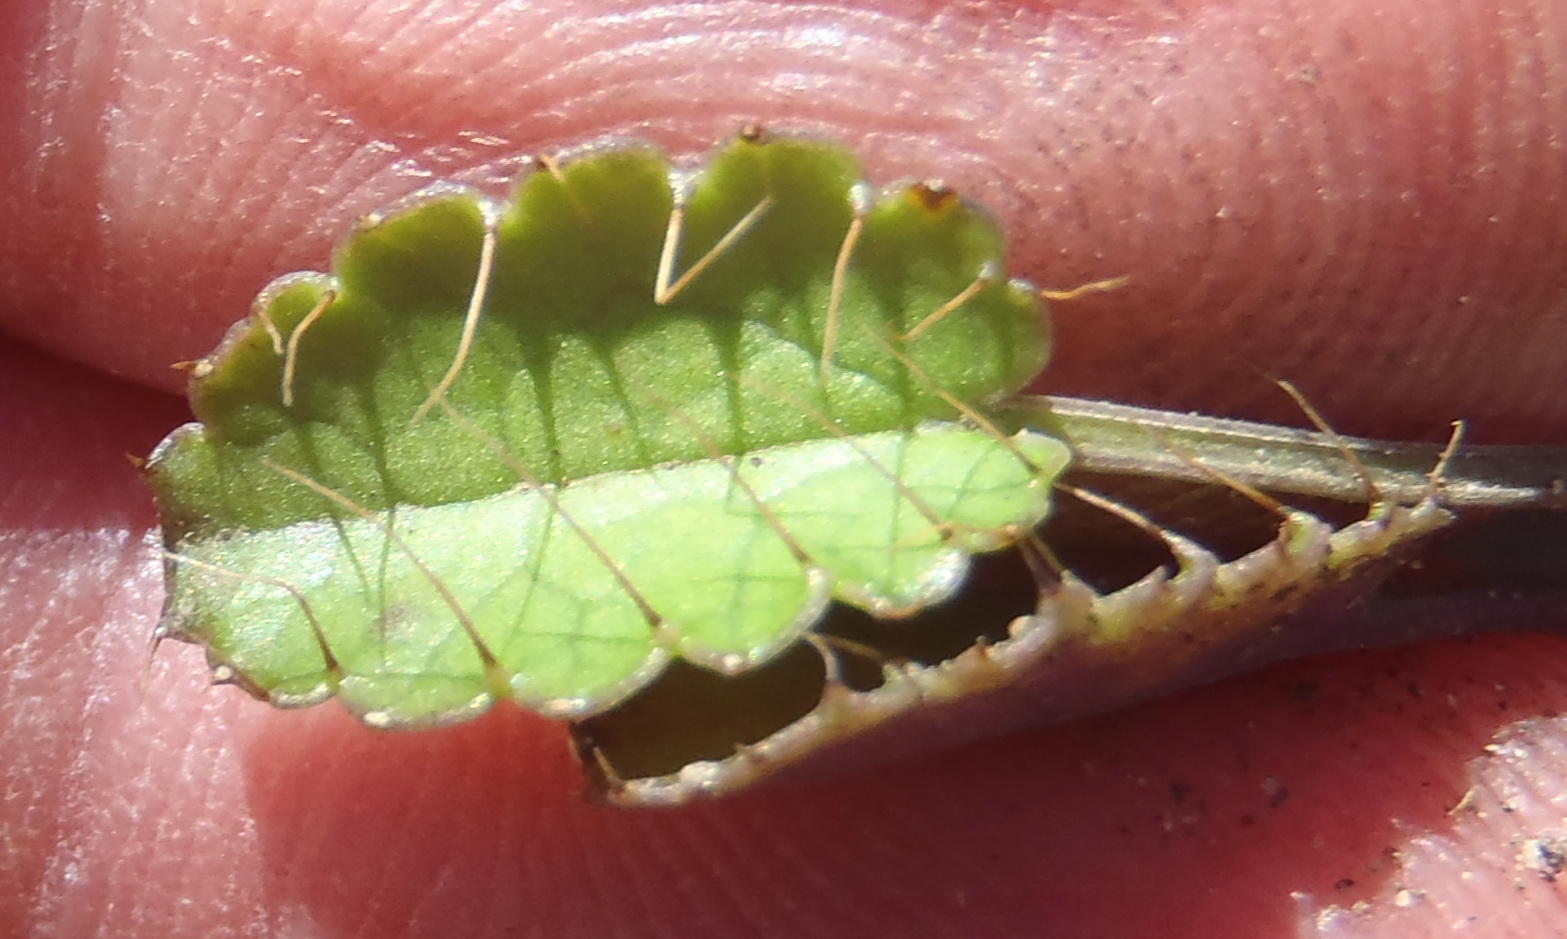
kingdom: Plantae
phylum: Tracheophyta
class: Magnoliopsida
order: Apiales
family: Apiaceae
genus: Alepidea
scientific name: Alepidea delicatula
